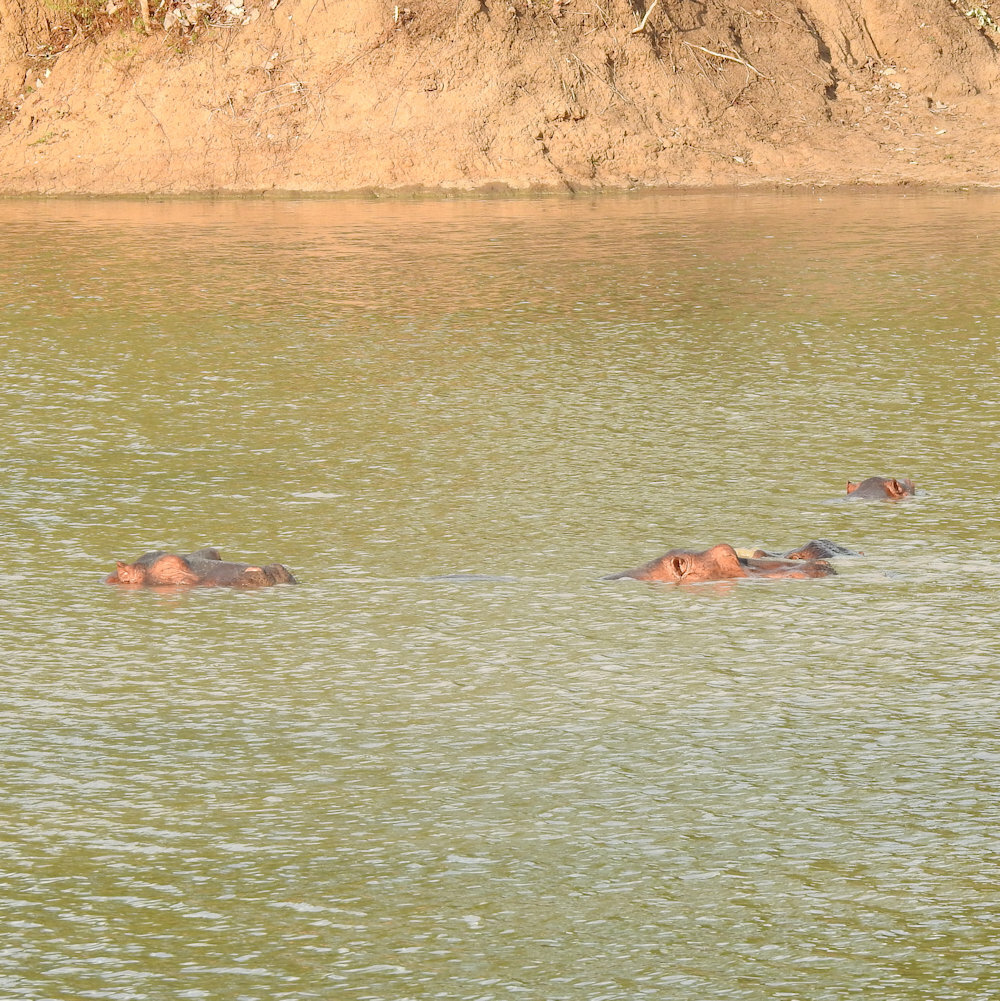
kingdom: Animalia
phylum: Chordata
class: Mammalia
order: Artiodactyla
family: Hippopotamidae
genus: Hippopotamus
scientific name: Hippopotamus amphibius
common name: Common hippopotamus
